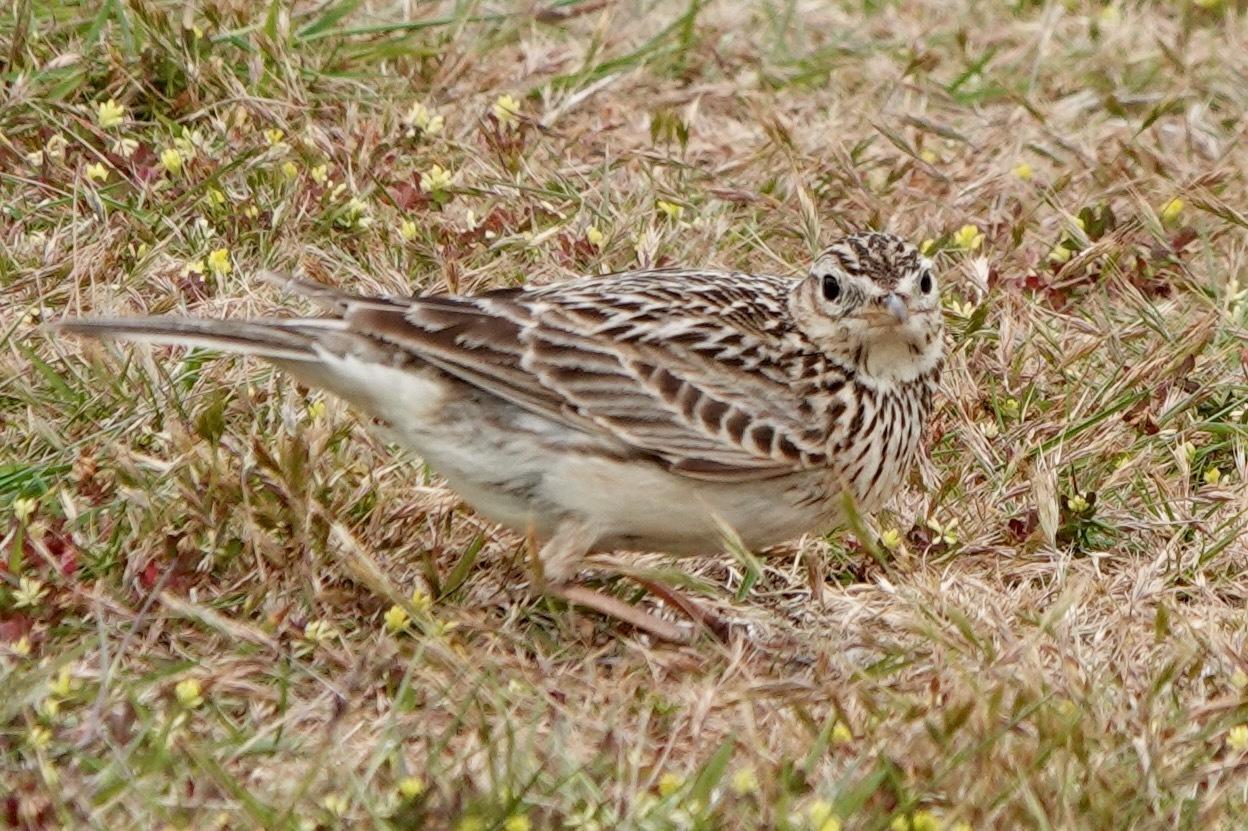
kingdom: Animalia
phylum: Chordata
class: Aves
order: Passeriformes
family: Alaudidae
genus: Alauda
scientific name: Alauda arvensis
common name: Eurasian skylark
